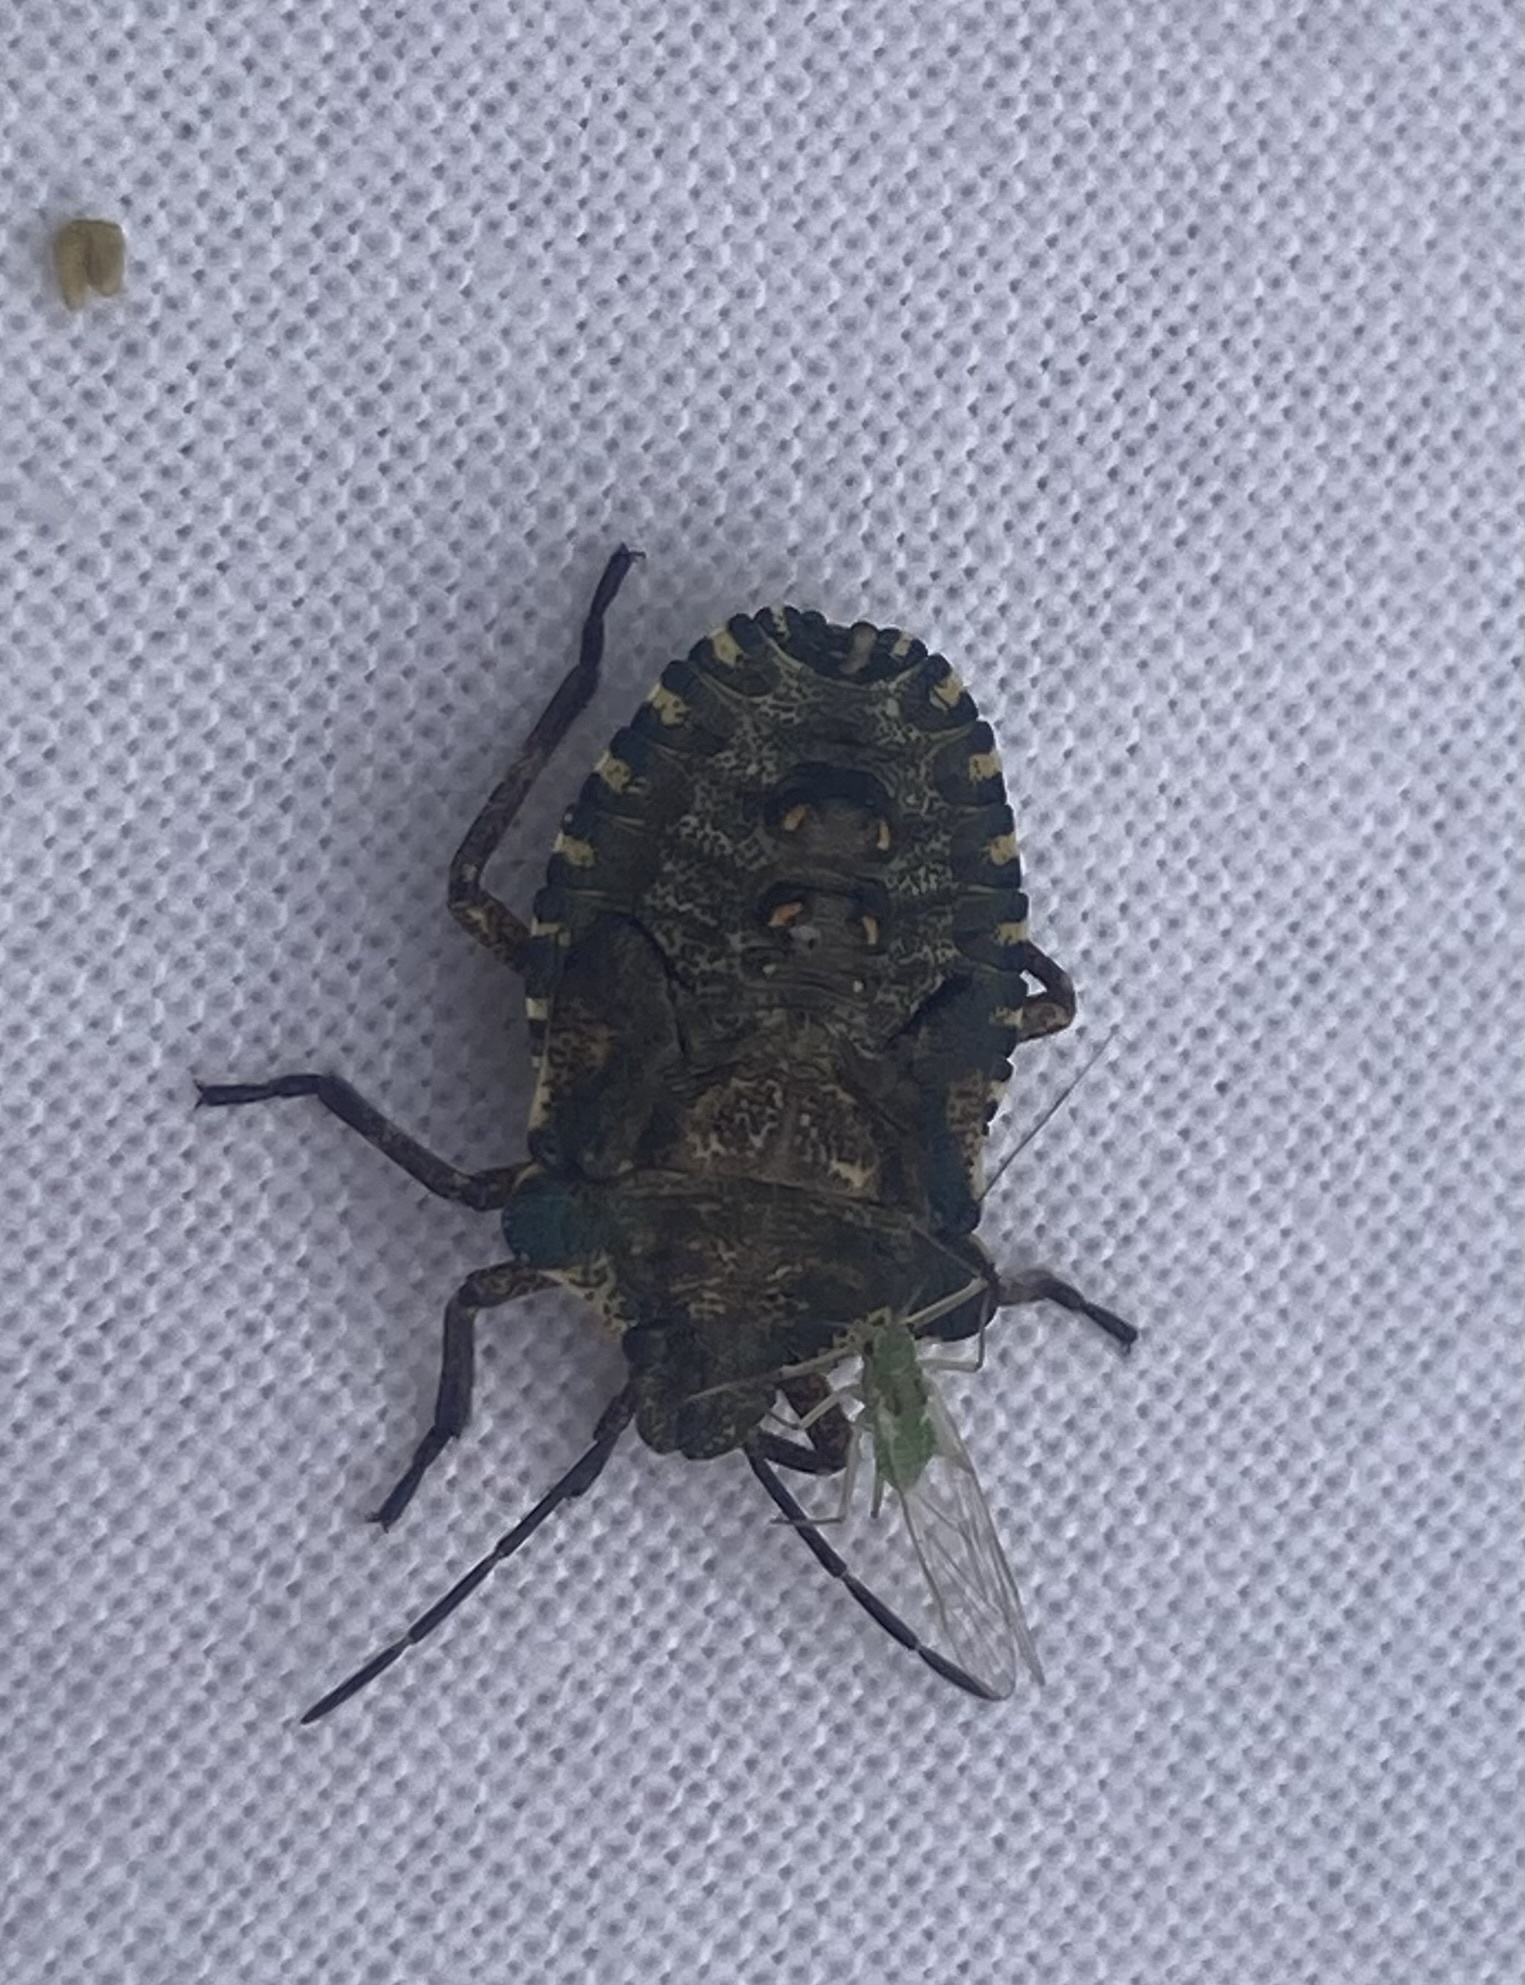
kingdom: Animalia
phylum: Arthropoda
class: Insecta
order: Hemiptera
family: Pentatomidae
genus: Pentatoma
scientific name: Pentatoma rufipes
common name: Forest bug
